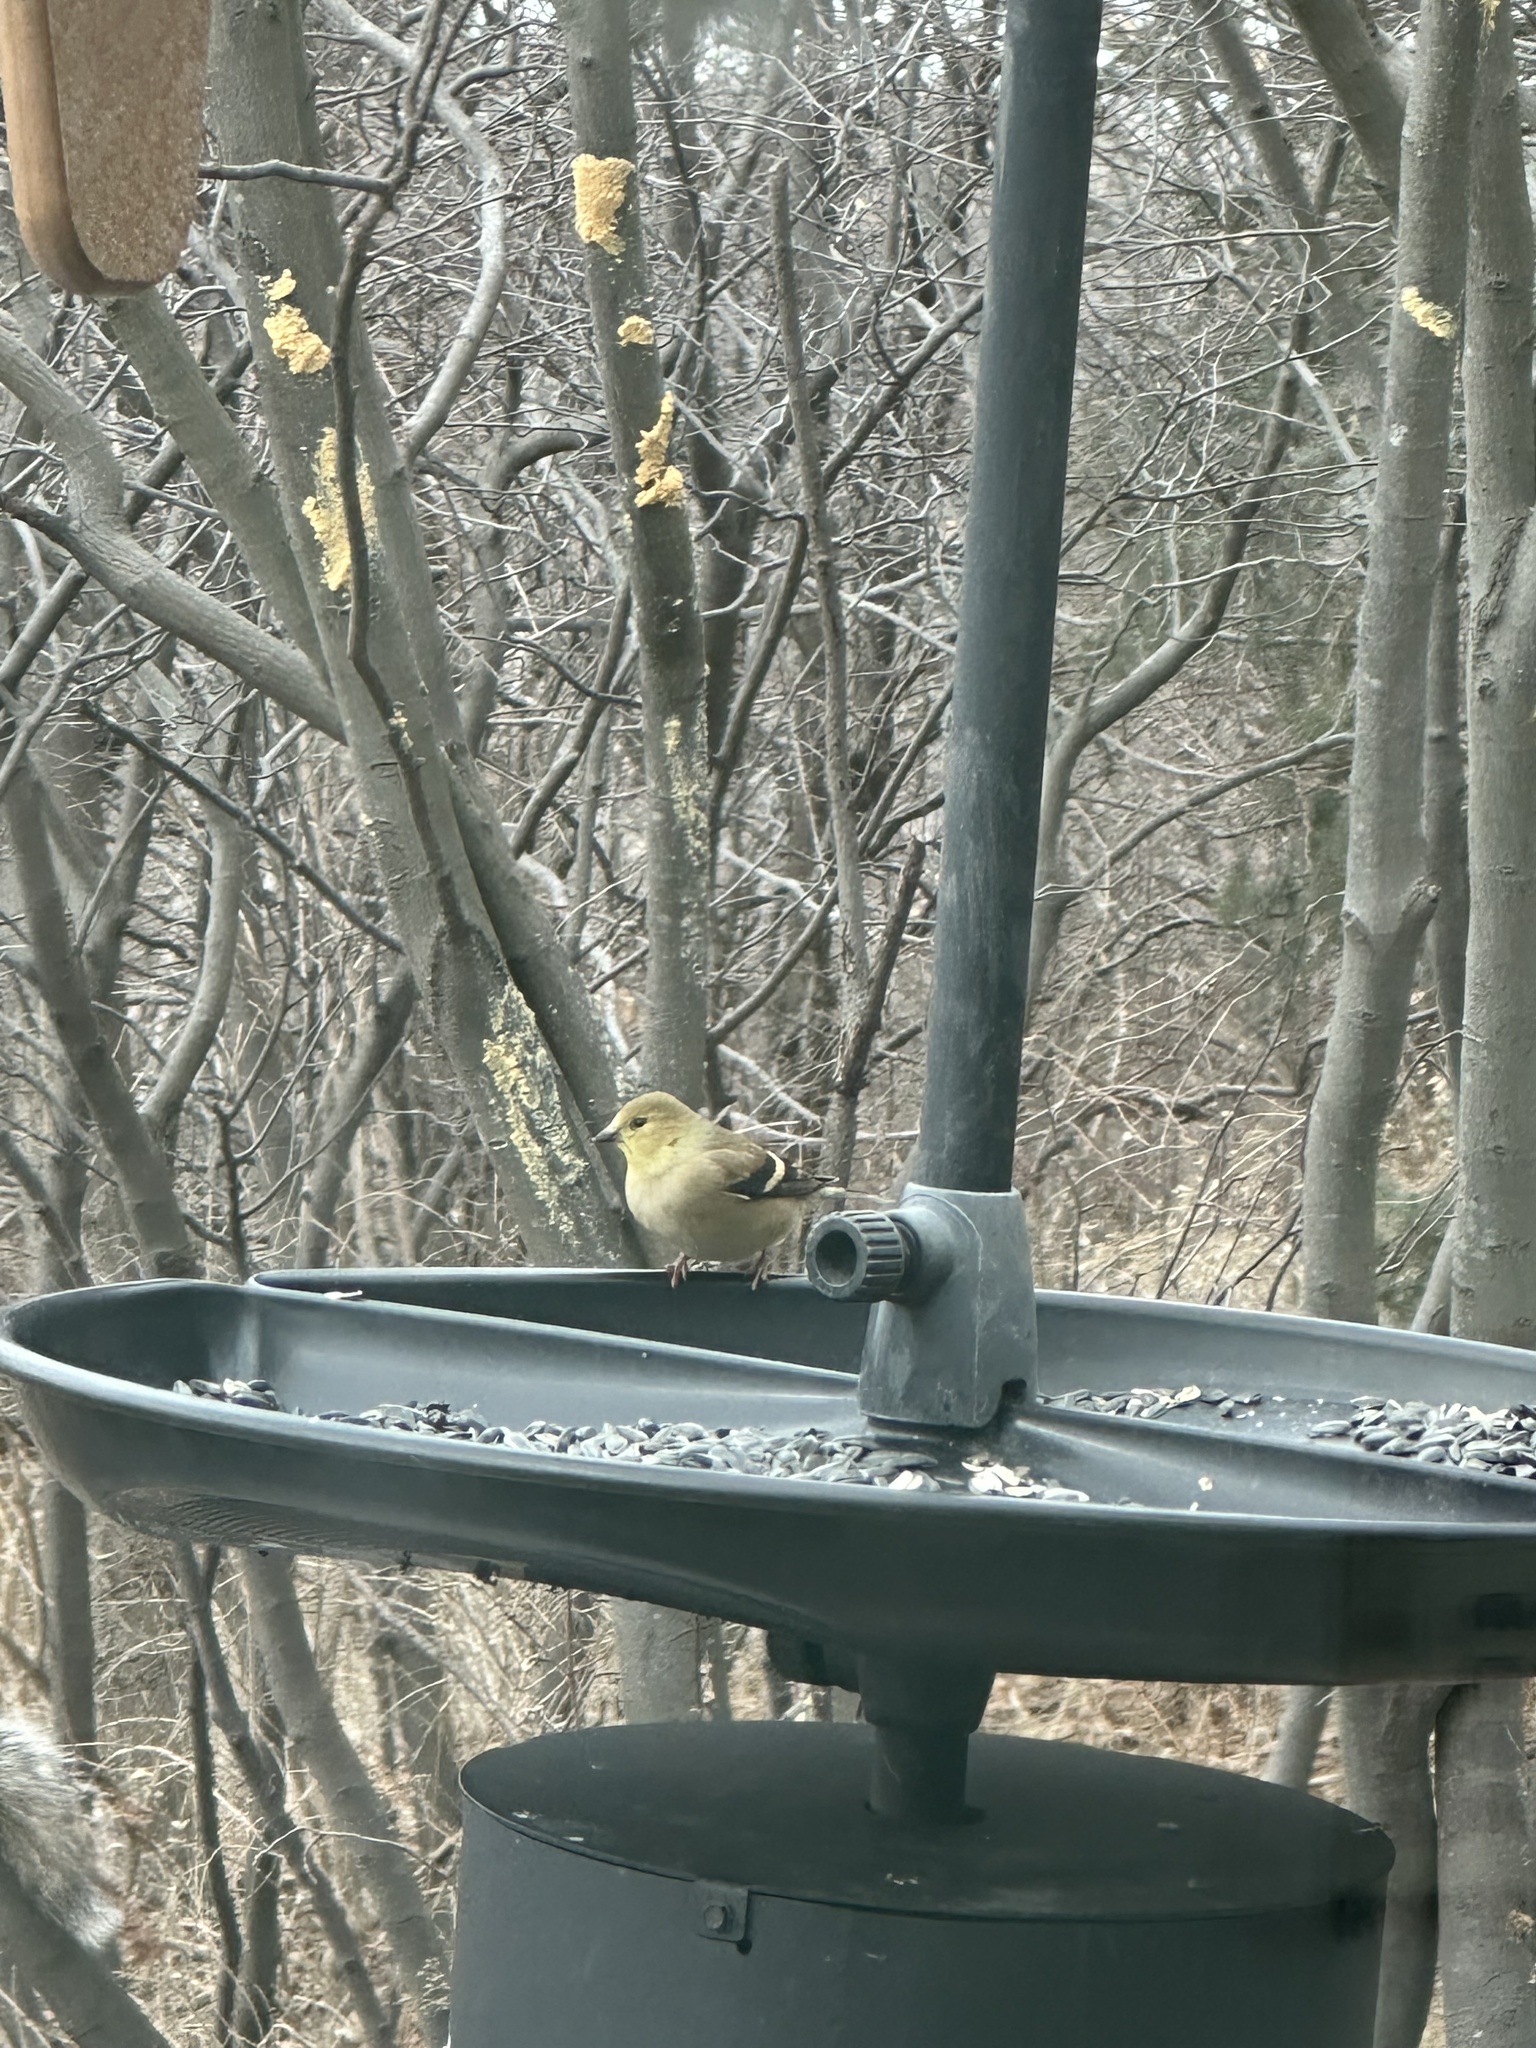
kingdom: Animalia
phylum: Chordata
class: Aves
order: Passeriformes
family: Fringillidae
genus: Spinus
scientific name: Spinus tristis
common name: American goldfinch
